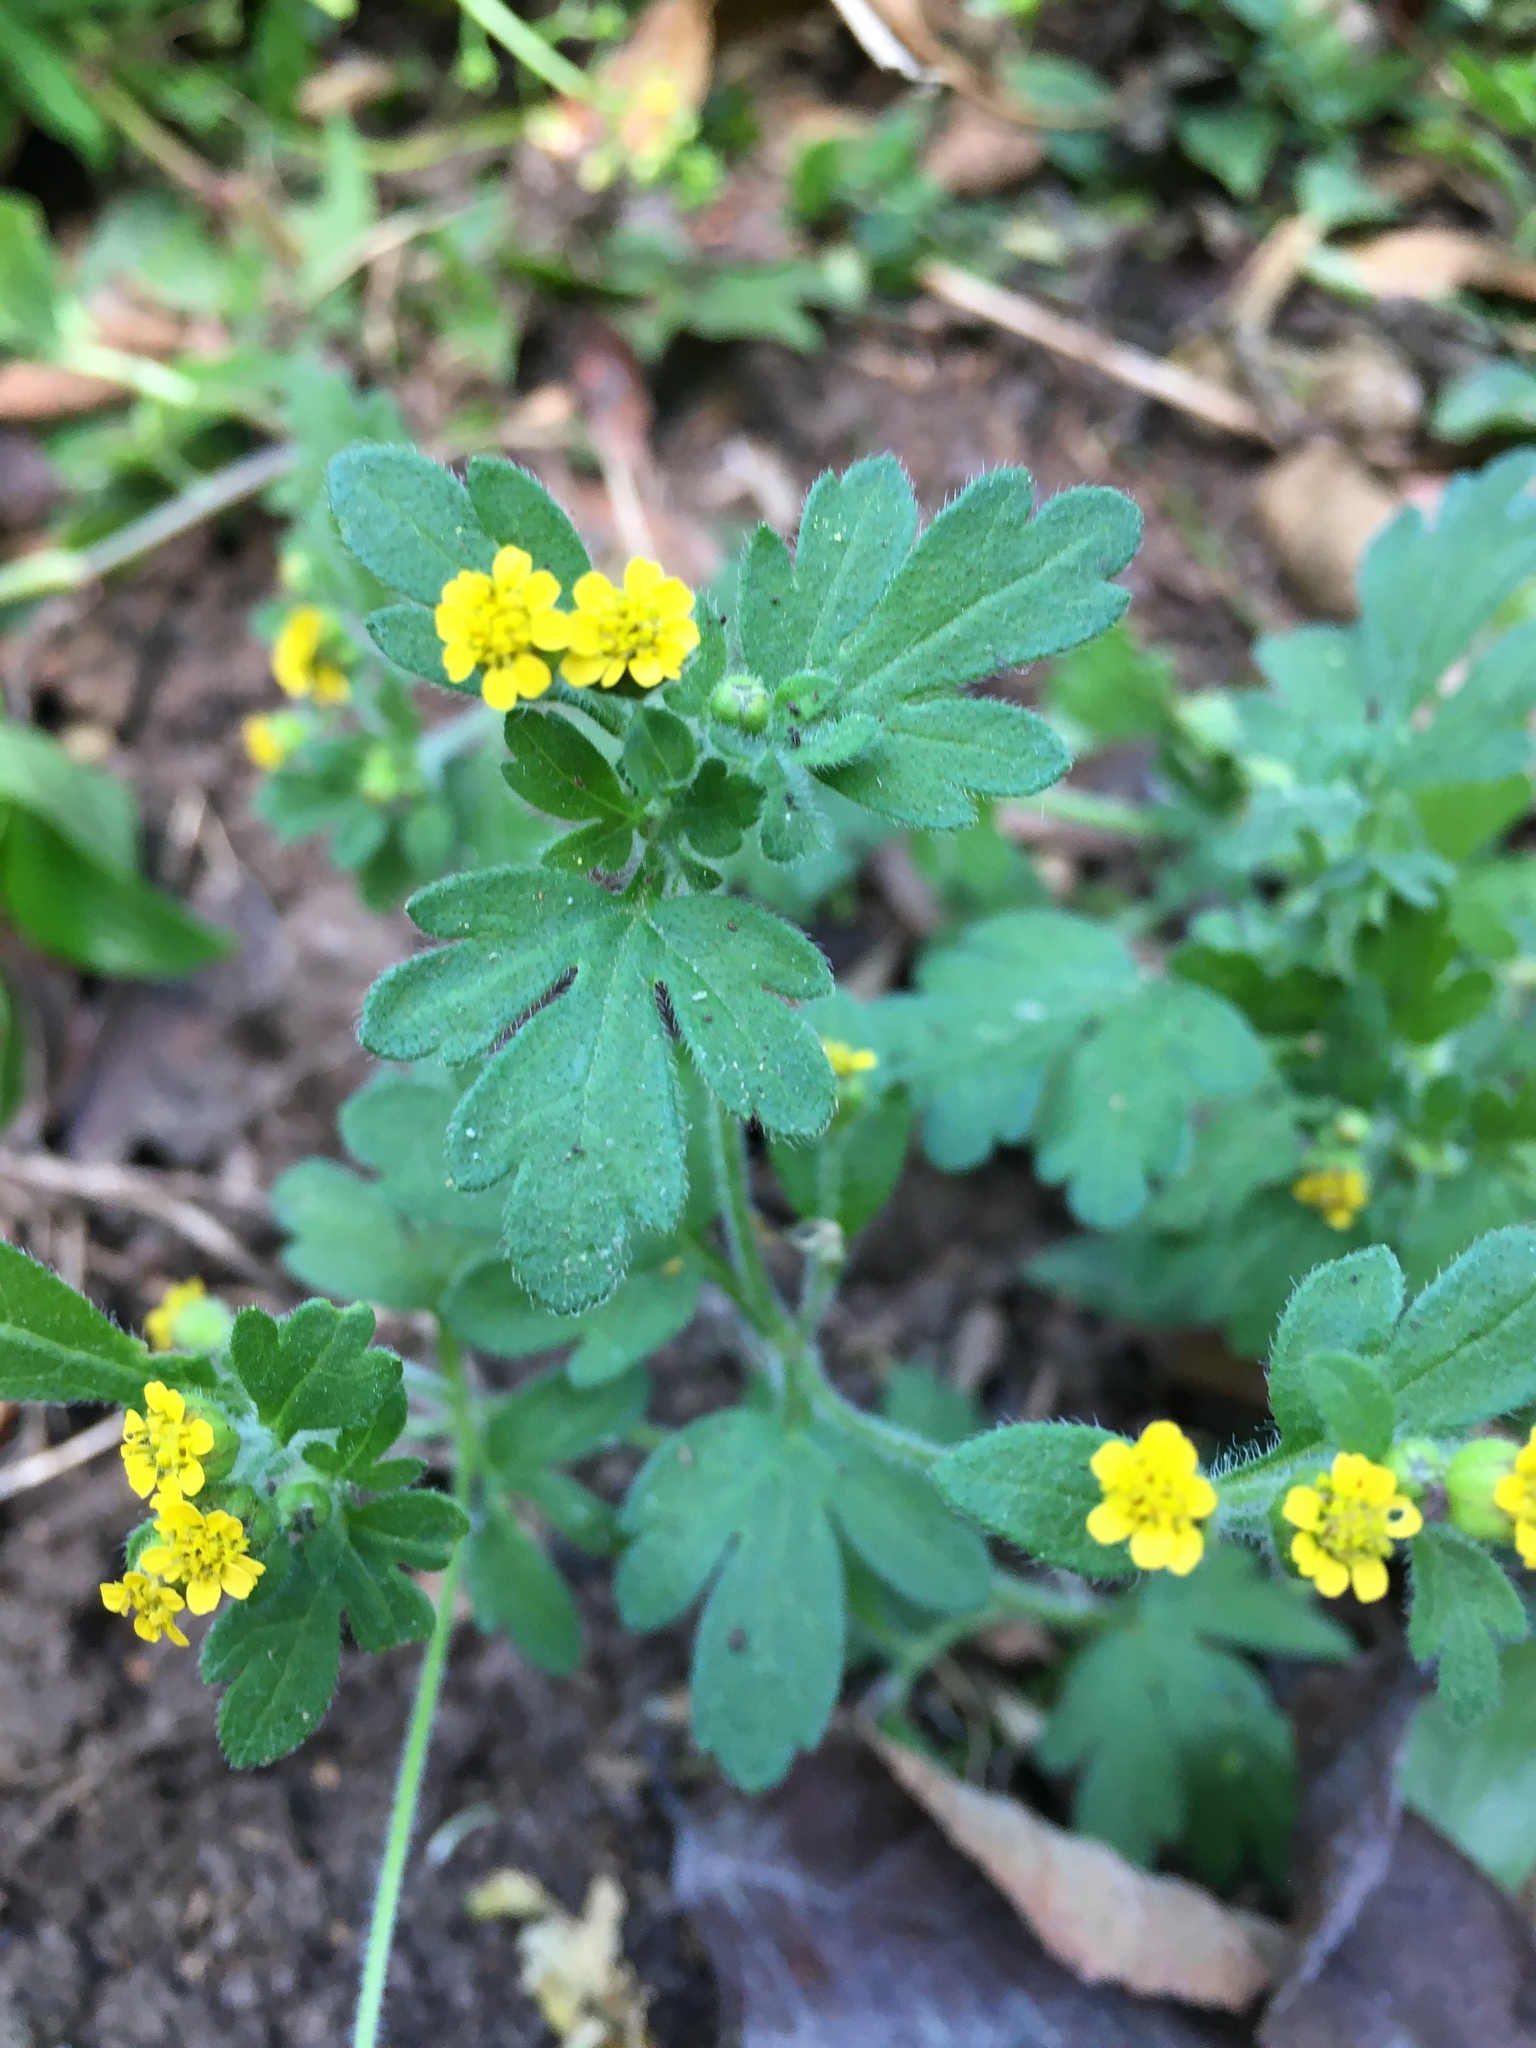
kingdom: Plantae
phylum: Tracheophyta
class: Magnoliopsida
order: Asterales
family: Asteraceae
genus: Villanova
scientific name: Villanova oppositifolia
